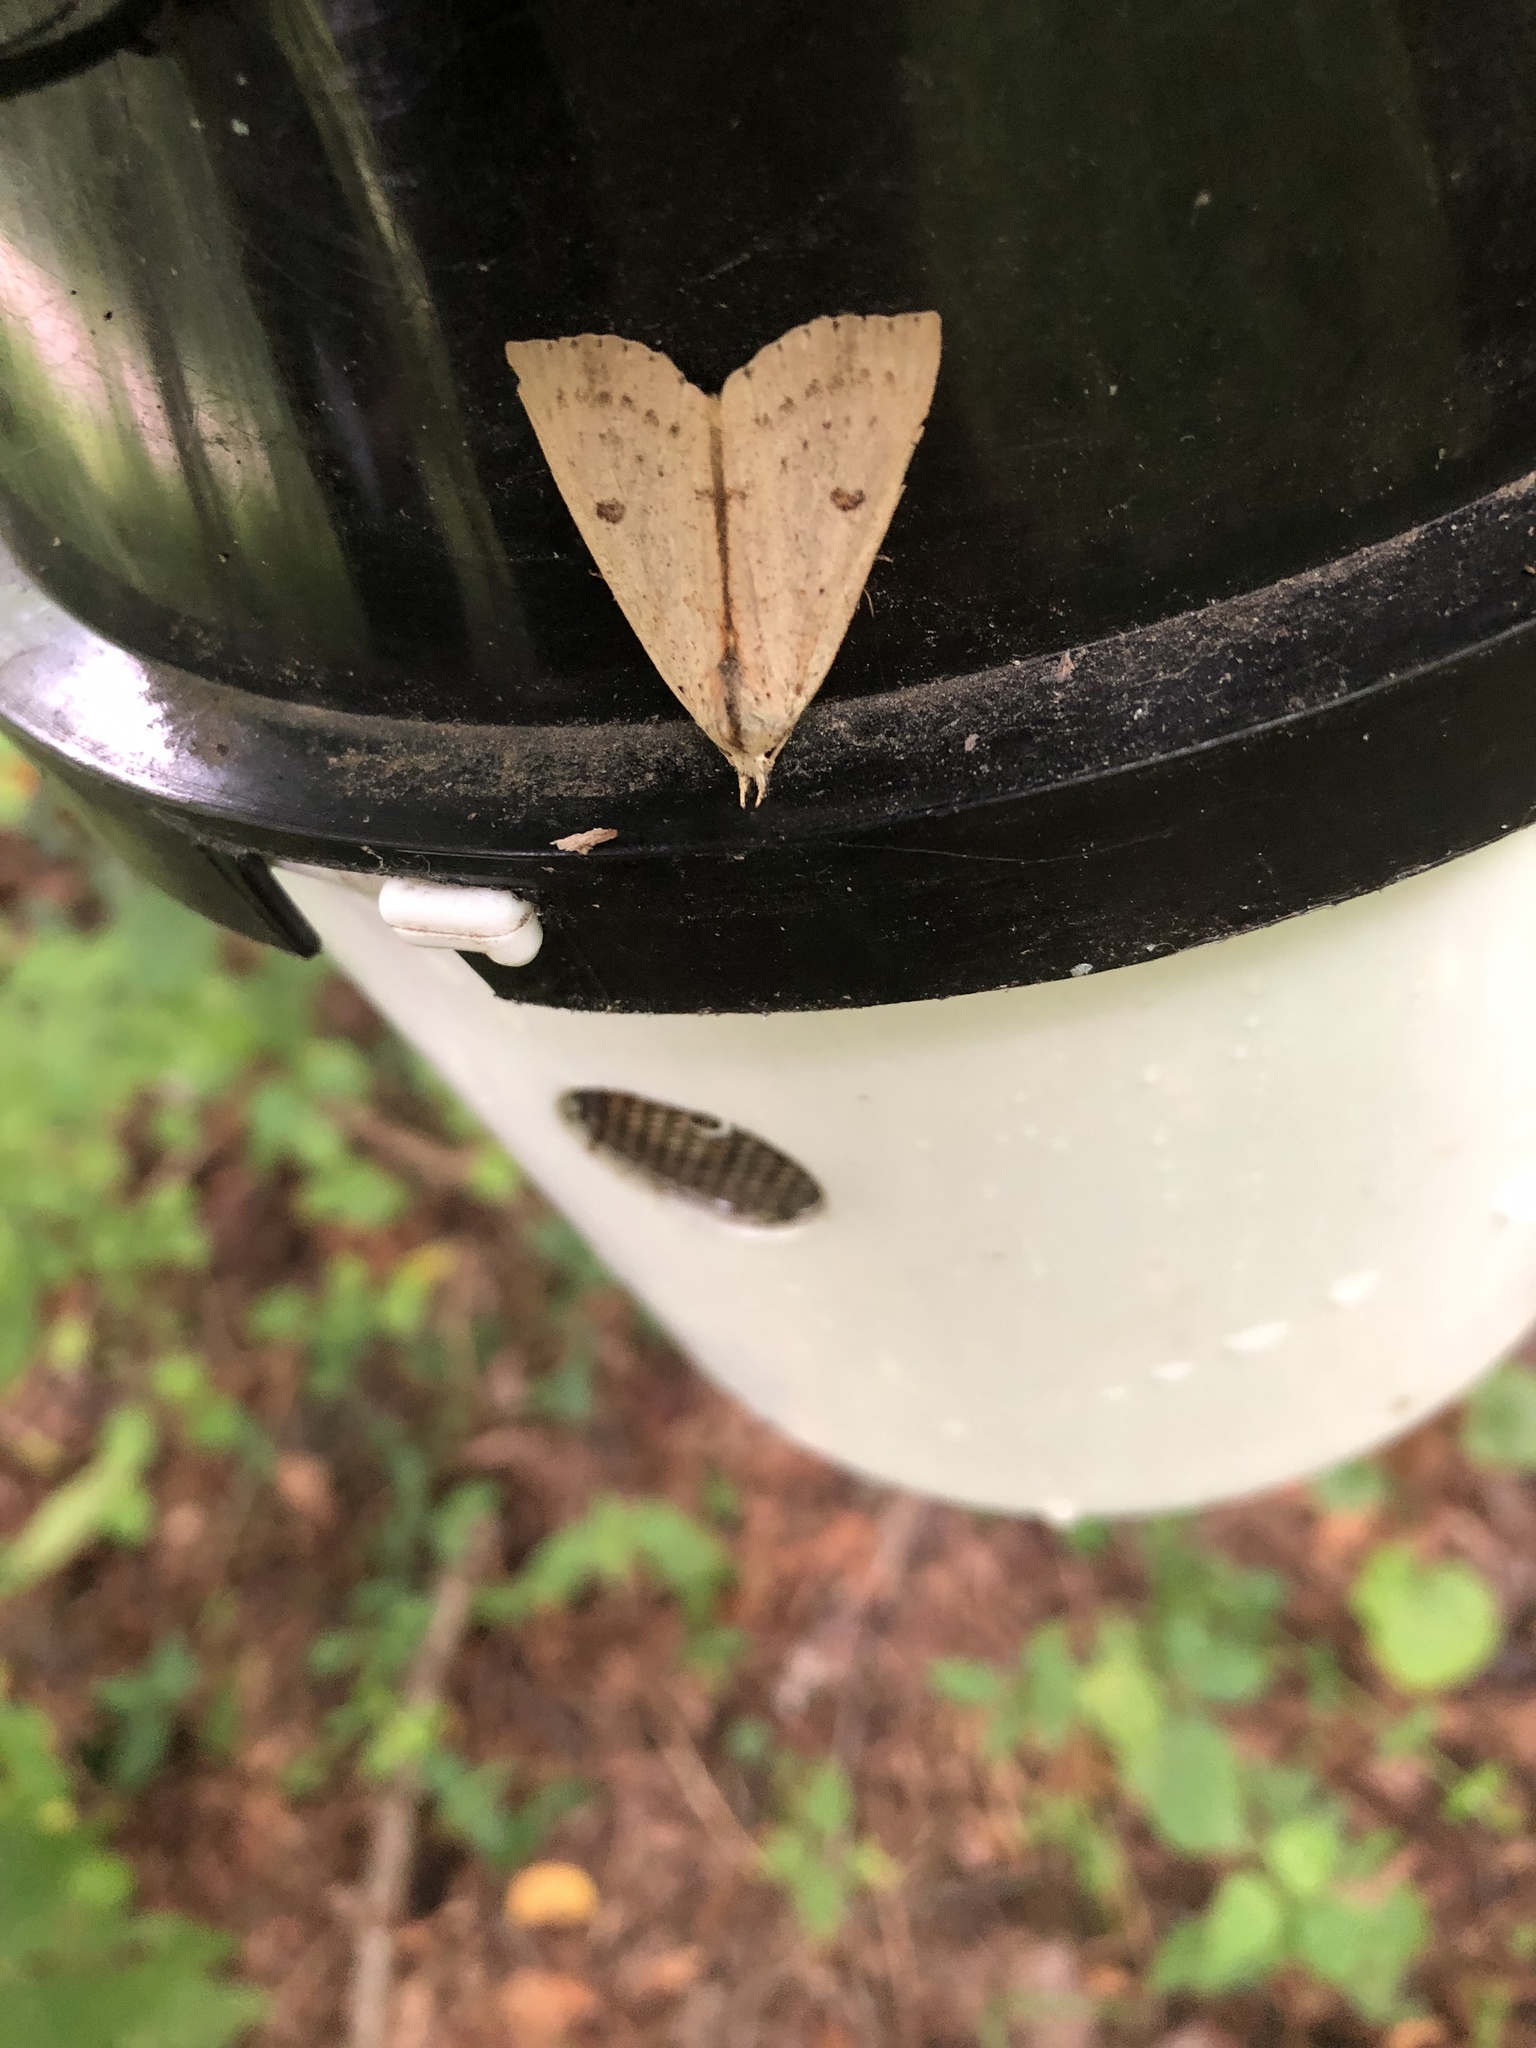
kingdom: Animalia
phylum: Arthropoda
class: Insecta
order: Lepidoptera
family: Erebidae
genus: Scolecocampa
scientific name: Scolecocampa liburna
